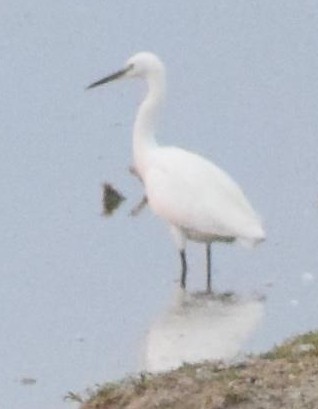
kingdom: Animalia
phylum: Chordata
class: Aves
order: Pelecaniformes
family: Ardeidae
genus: Egretta
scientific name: Egretta garzetta
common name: Little egret
